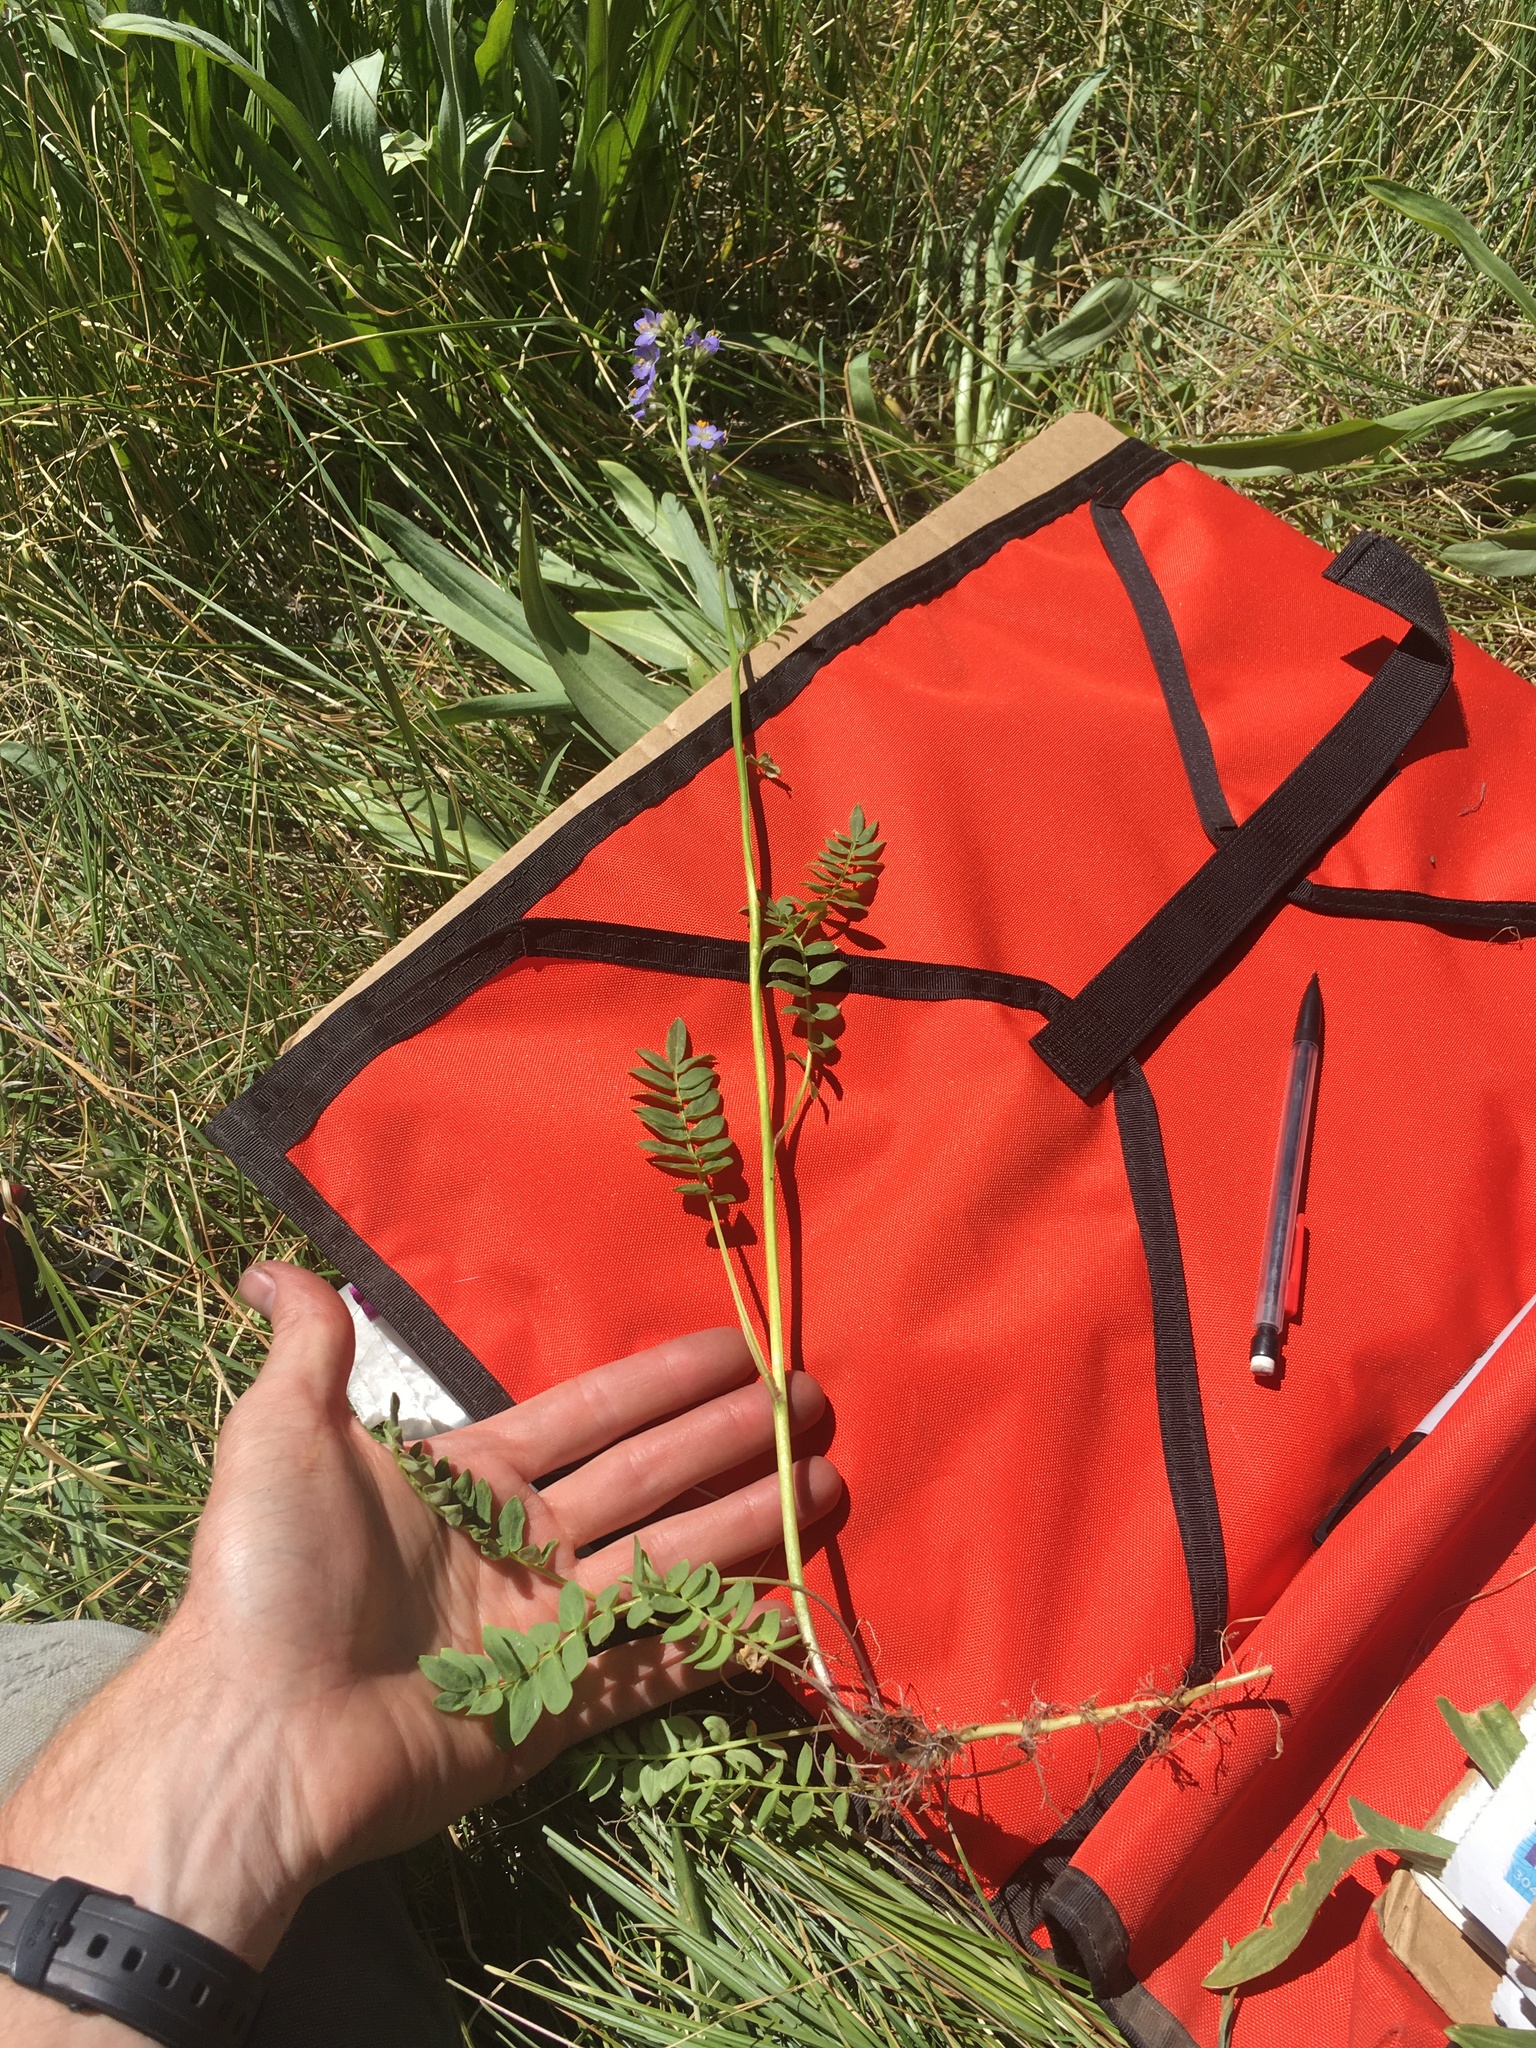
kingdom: Plantae
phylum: Tracheophyta
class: Magnoliopsida
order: Ericales
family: Polemoniaceae
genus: Polemonium
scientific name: Polemonium occidentale
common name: Western jacob's-ladder
